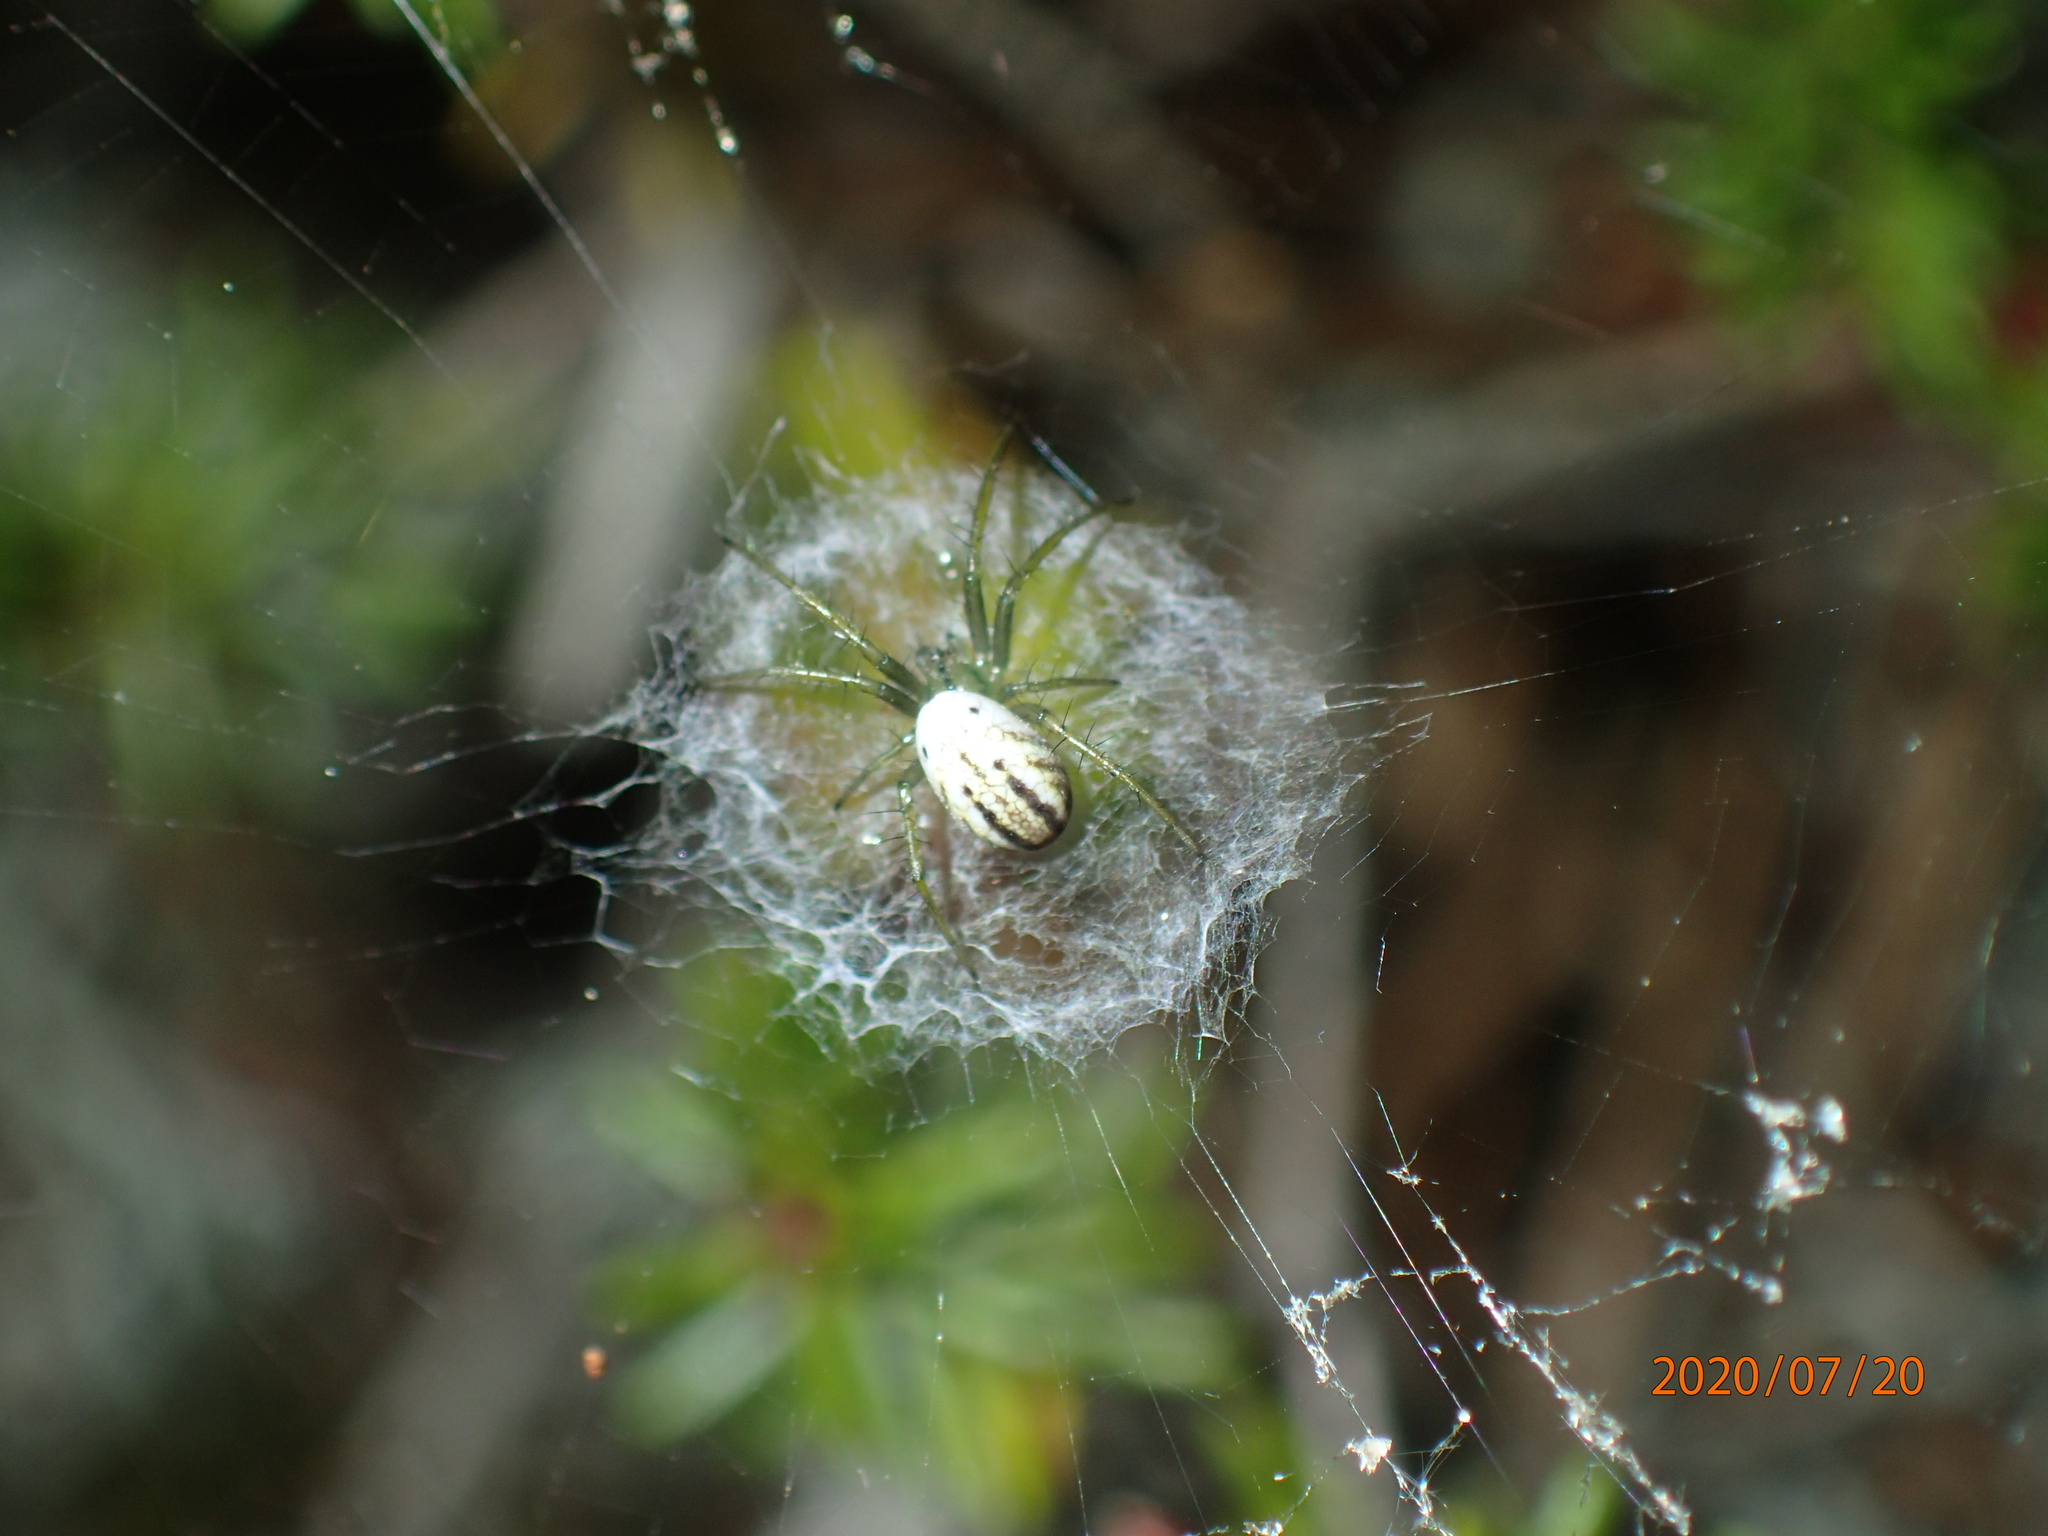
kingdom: Animalia
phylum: Arthropoda
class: Arachnida
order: Araneae
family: Araneidae
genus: Mangora
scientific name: Mangora gibberosa
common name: Lined orbweaver
